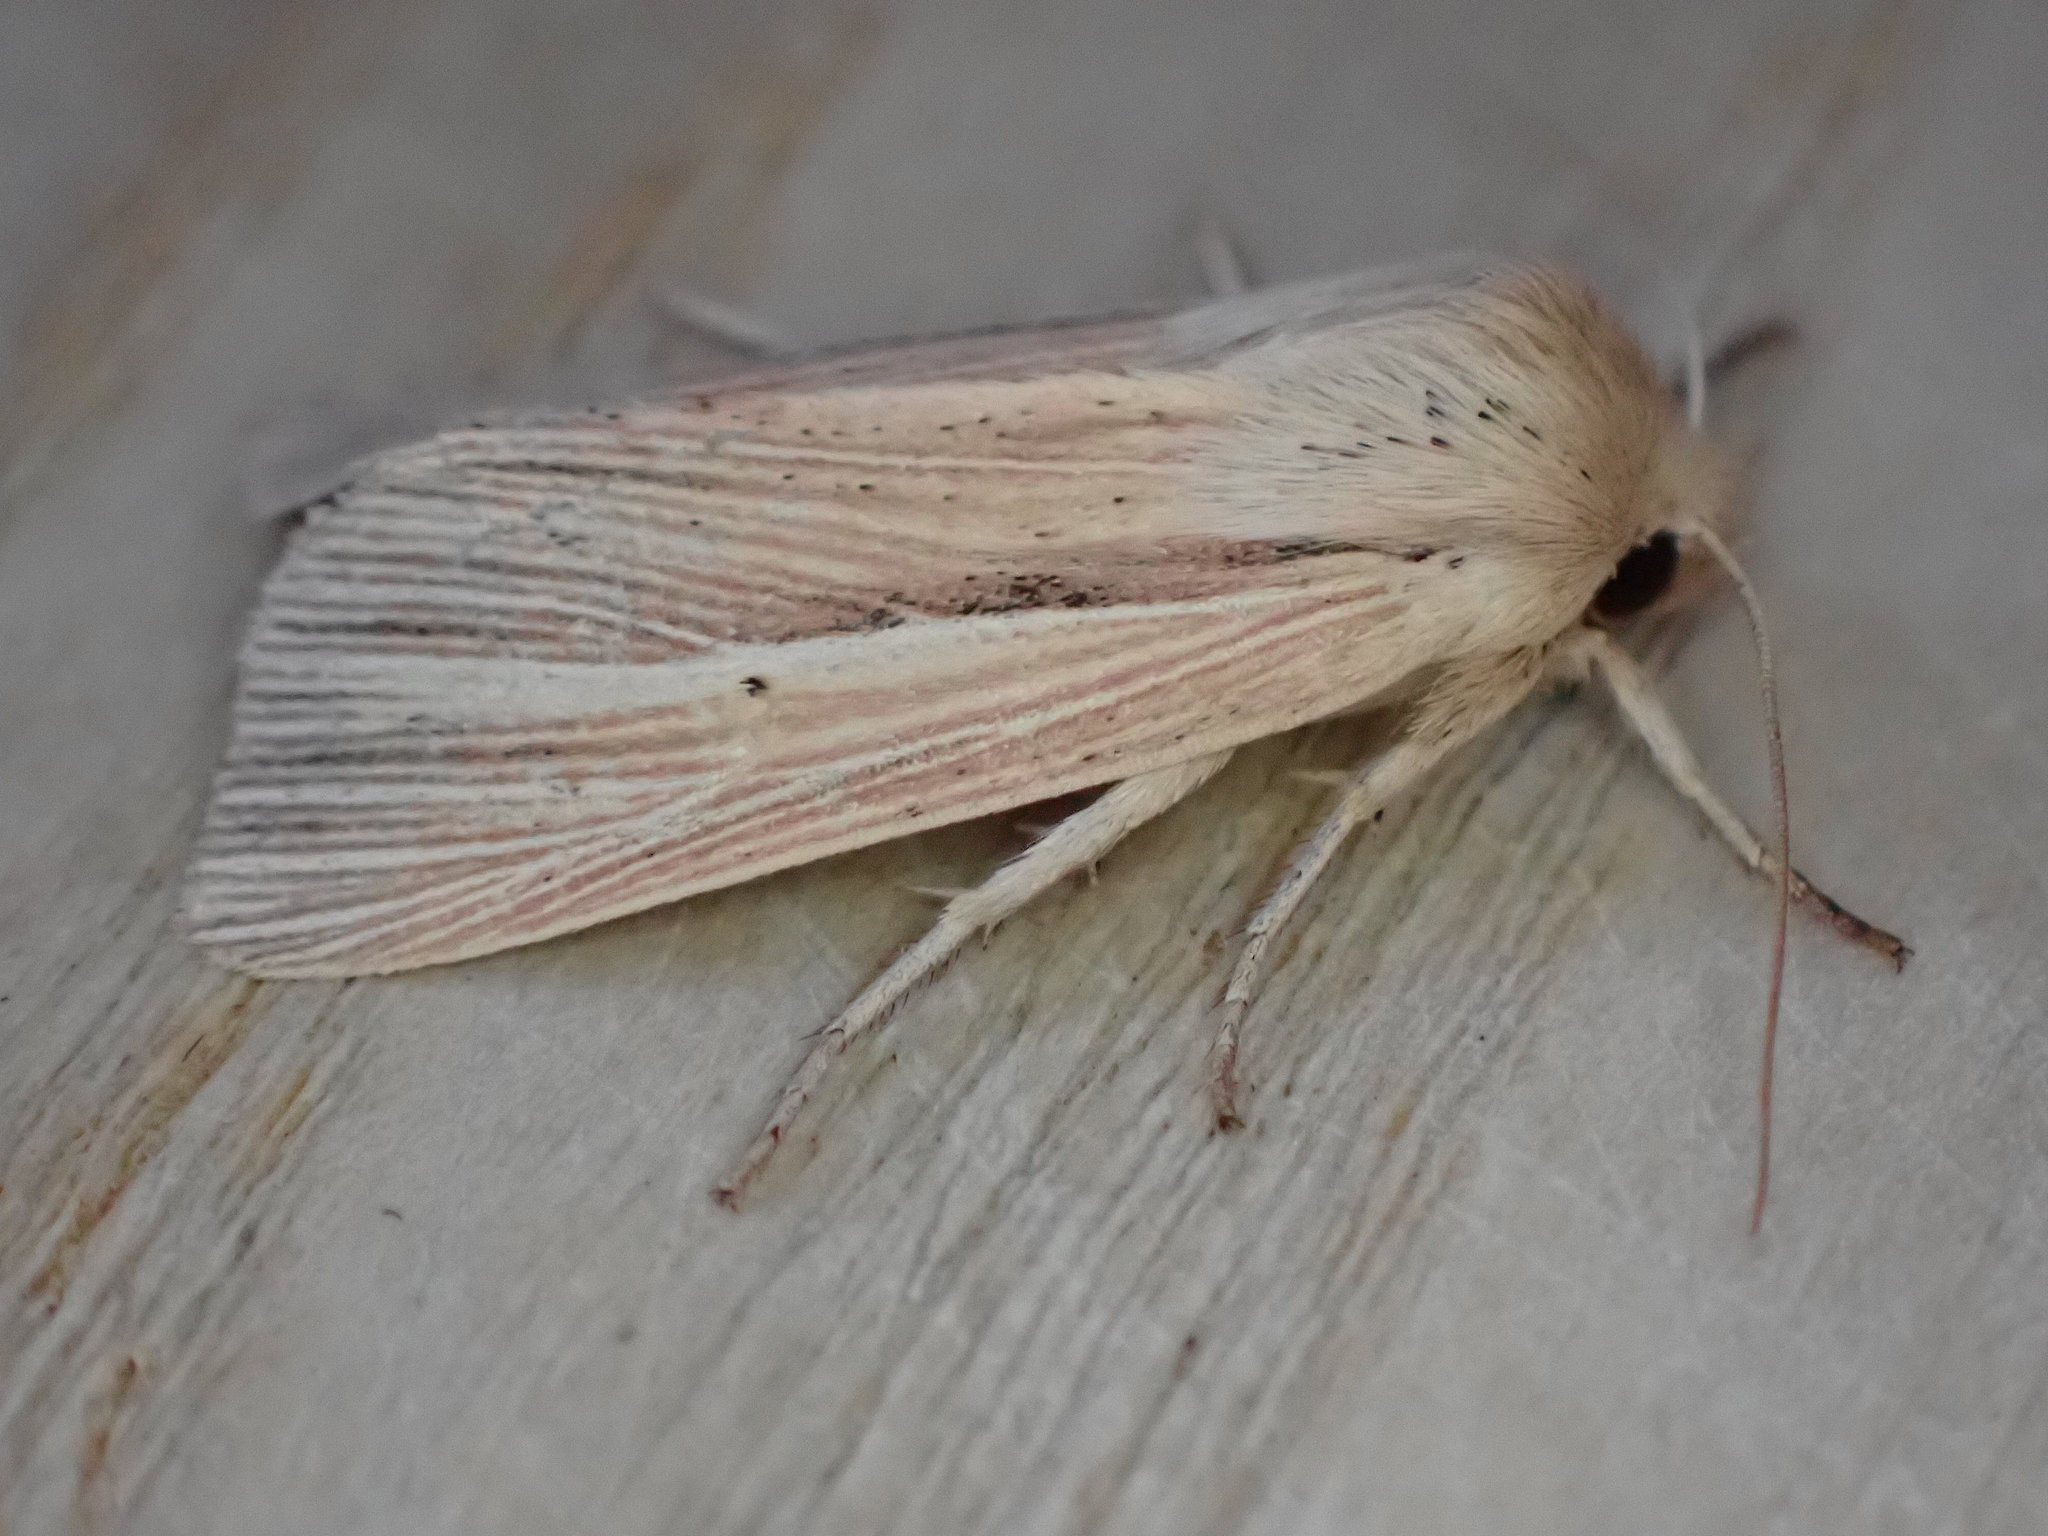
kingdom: Animalia
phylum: Arthropoda
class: Insecta
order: Lepidoptera
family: Noctuidae
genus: Mythimna
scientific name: Mythimna pallens
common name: Common wainscot
